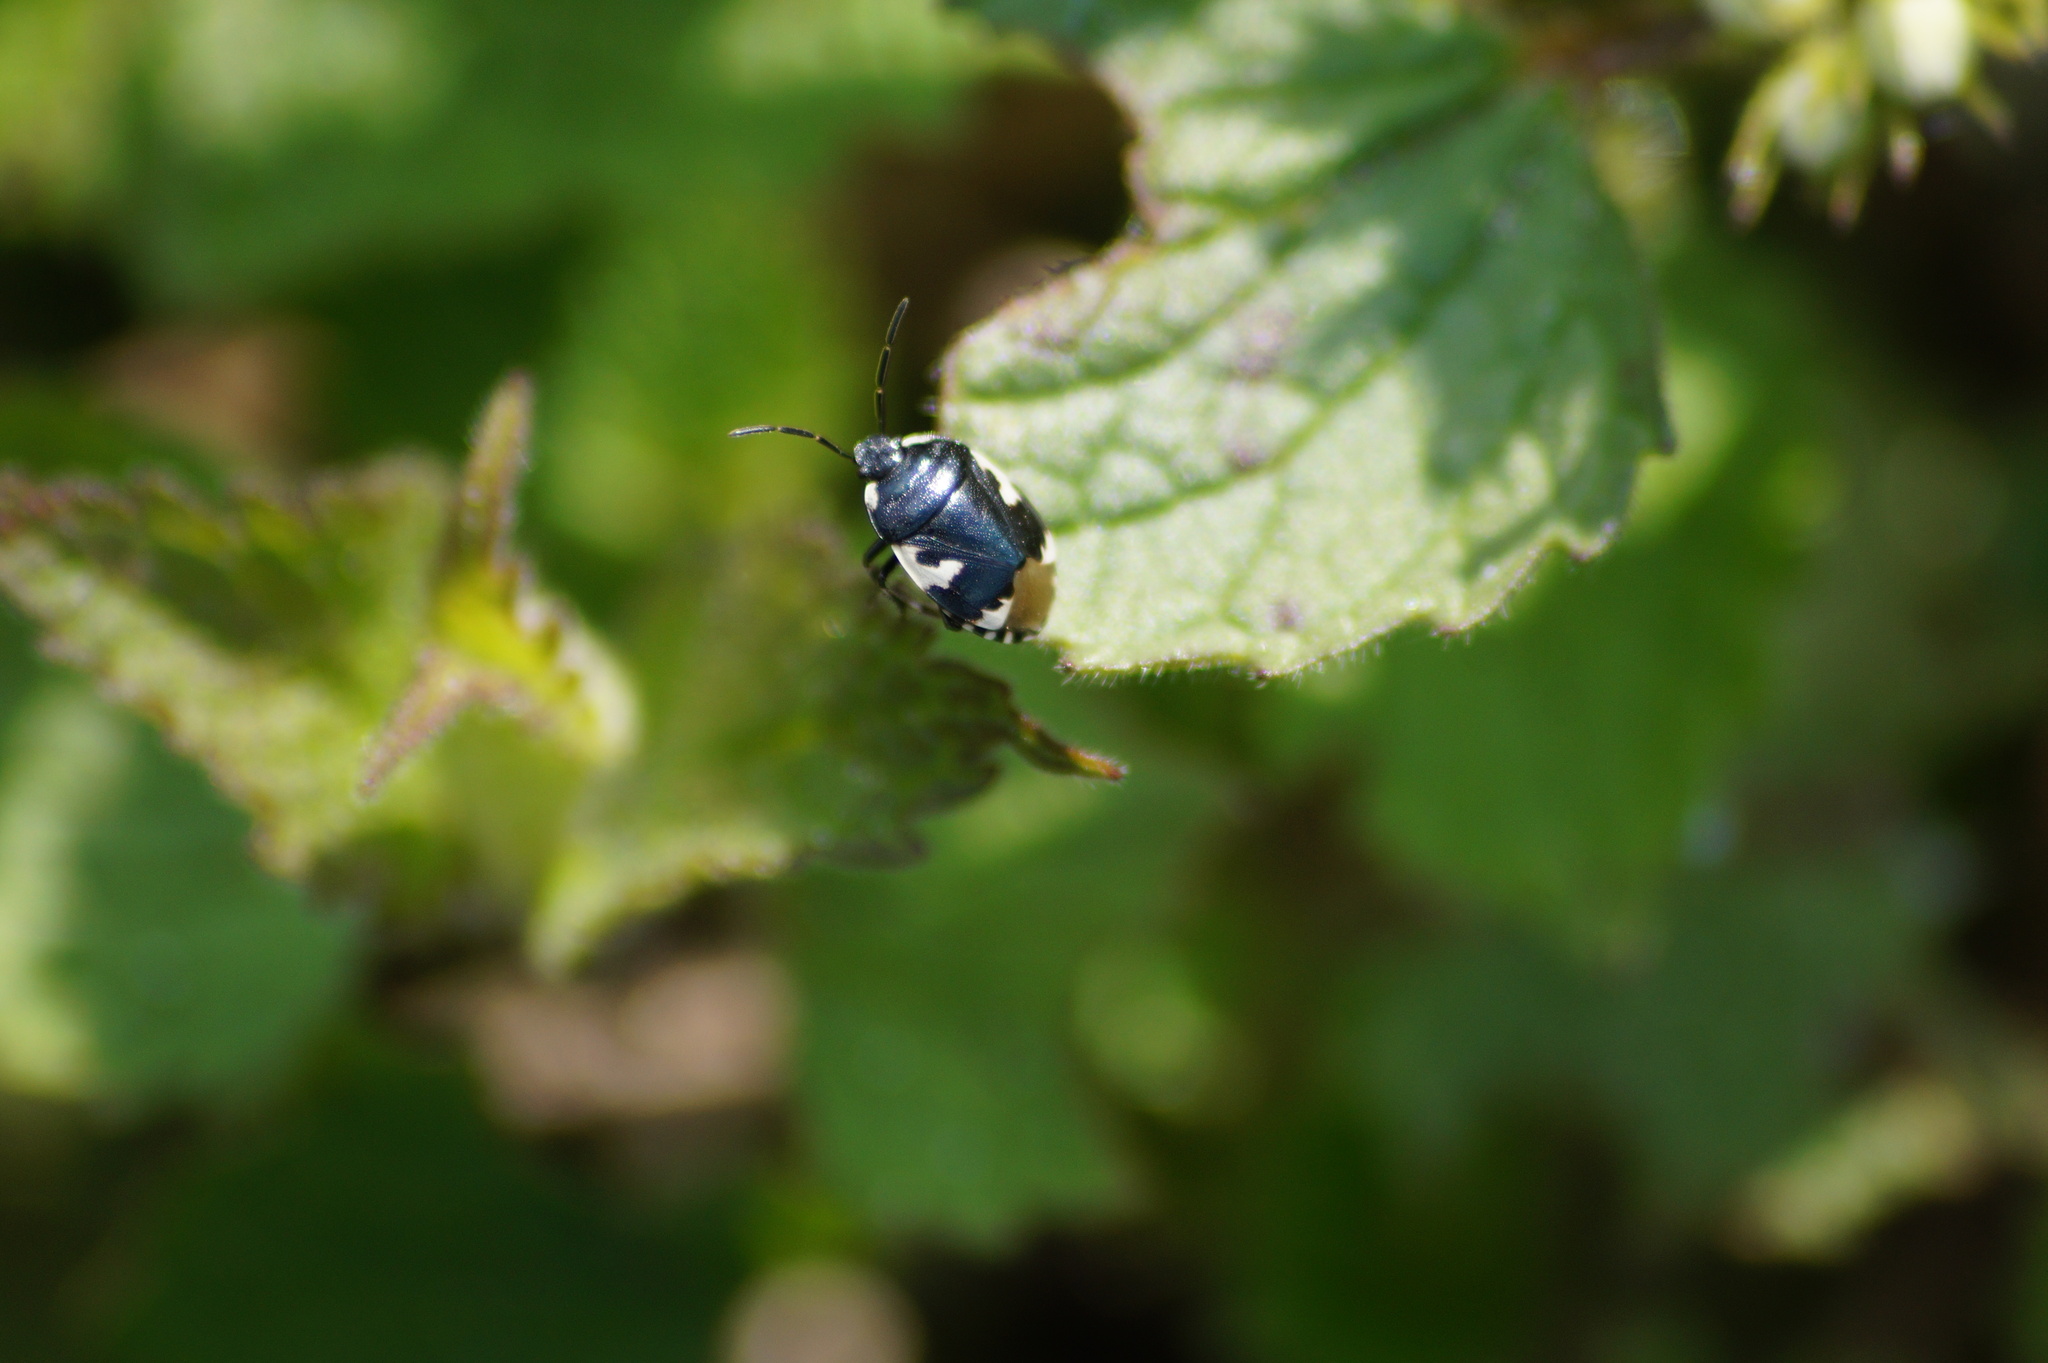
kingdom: Animalia
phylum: Arthropoda
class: Insecta
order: Hemiptera
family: Cydnidae
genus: Tritomegas
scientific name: Tritomegas bicolor
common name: Pied shieldbug
